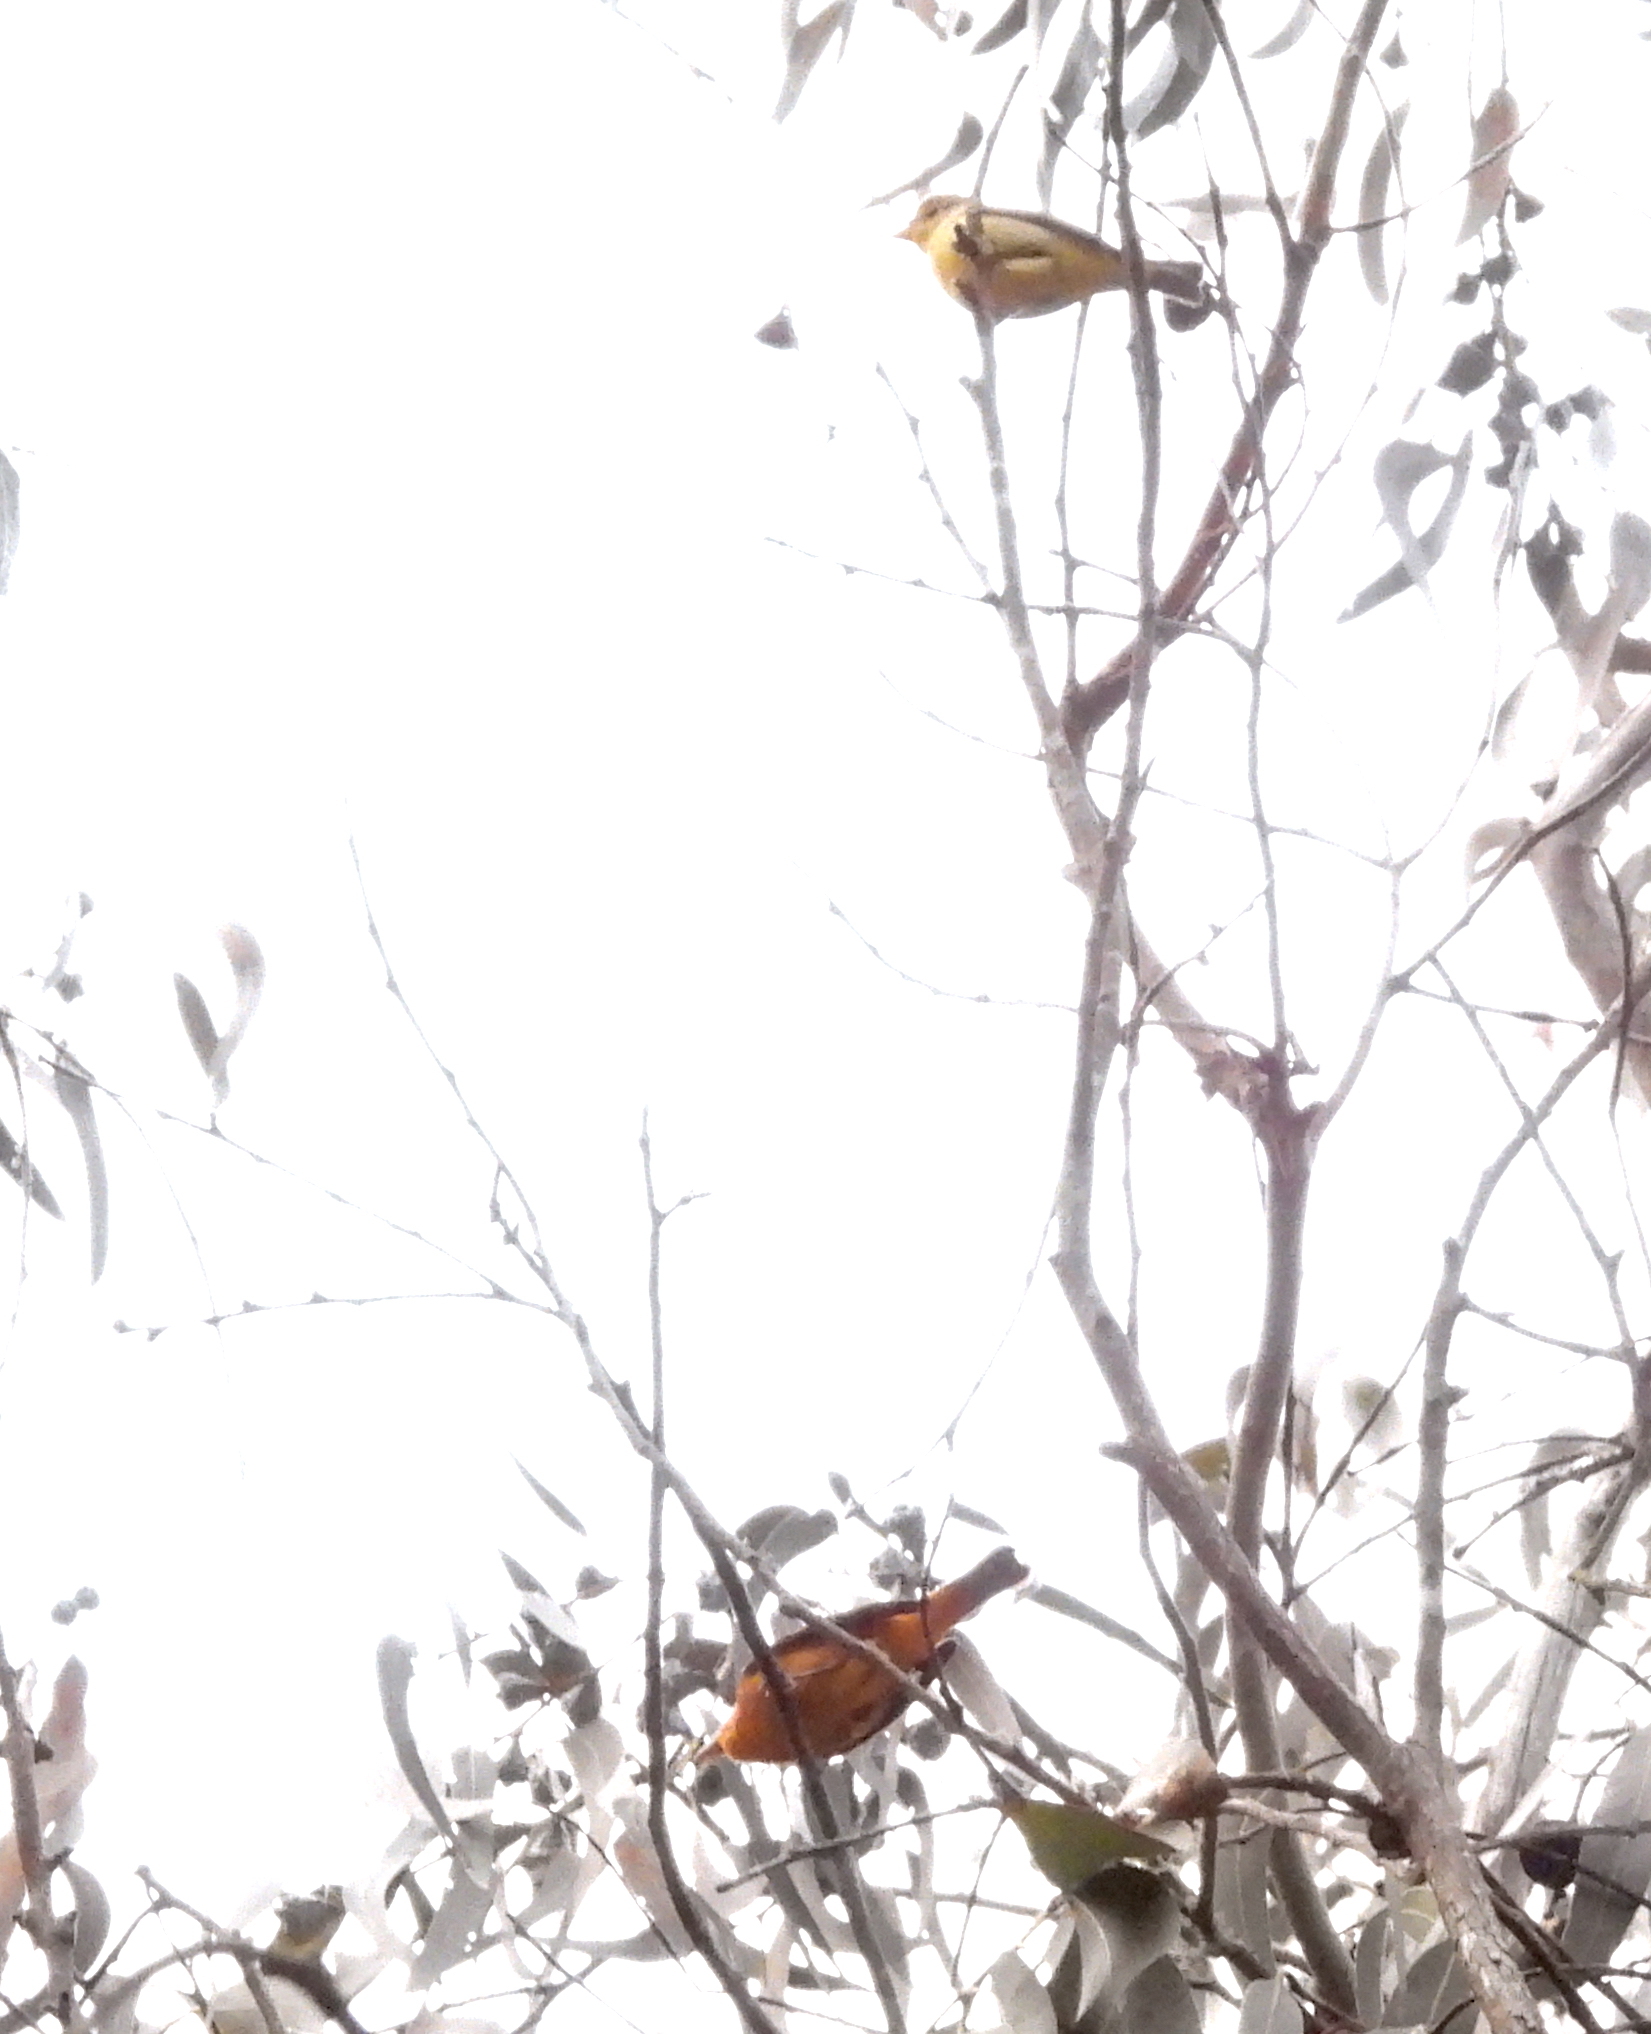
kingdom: Animalia
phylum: Chordata
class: Aves
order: Passeriformes
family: Cardinalidae
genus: Piranga
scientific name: Piranga ludoviciana
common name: Western tanager
